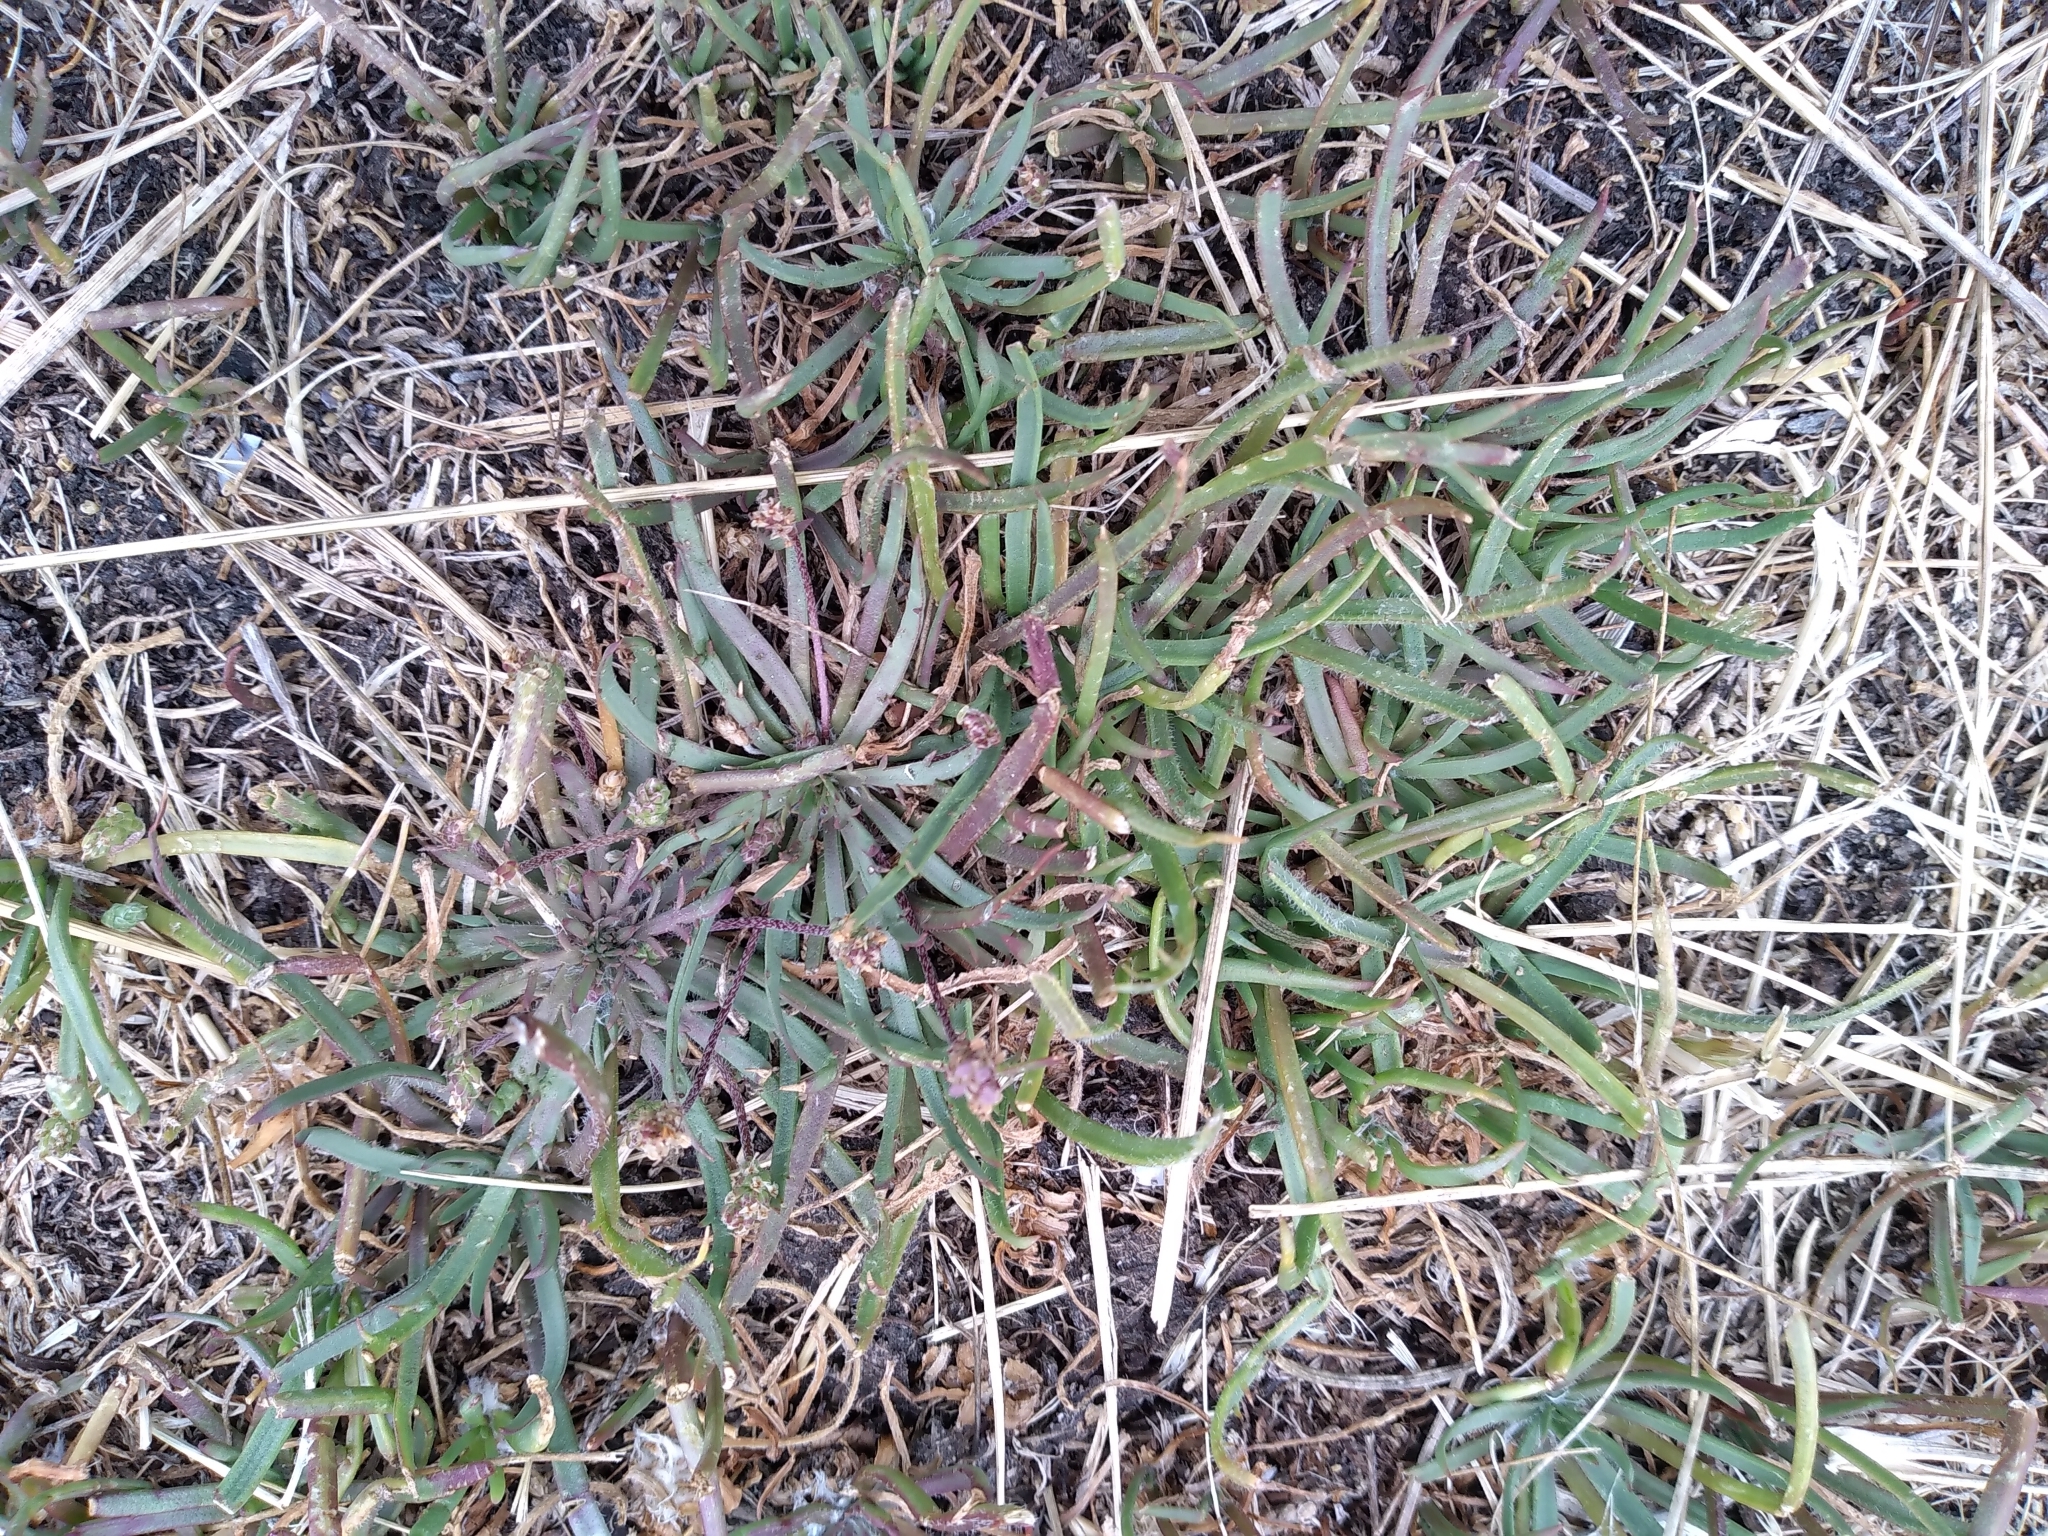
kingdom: Plantae
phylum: Tracheophyta
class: Magnoliopsida
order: Lamiales
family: Plantaginaceae
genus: Plantago
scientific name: Plantago coronopus
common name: Buck's-horn plantain
